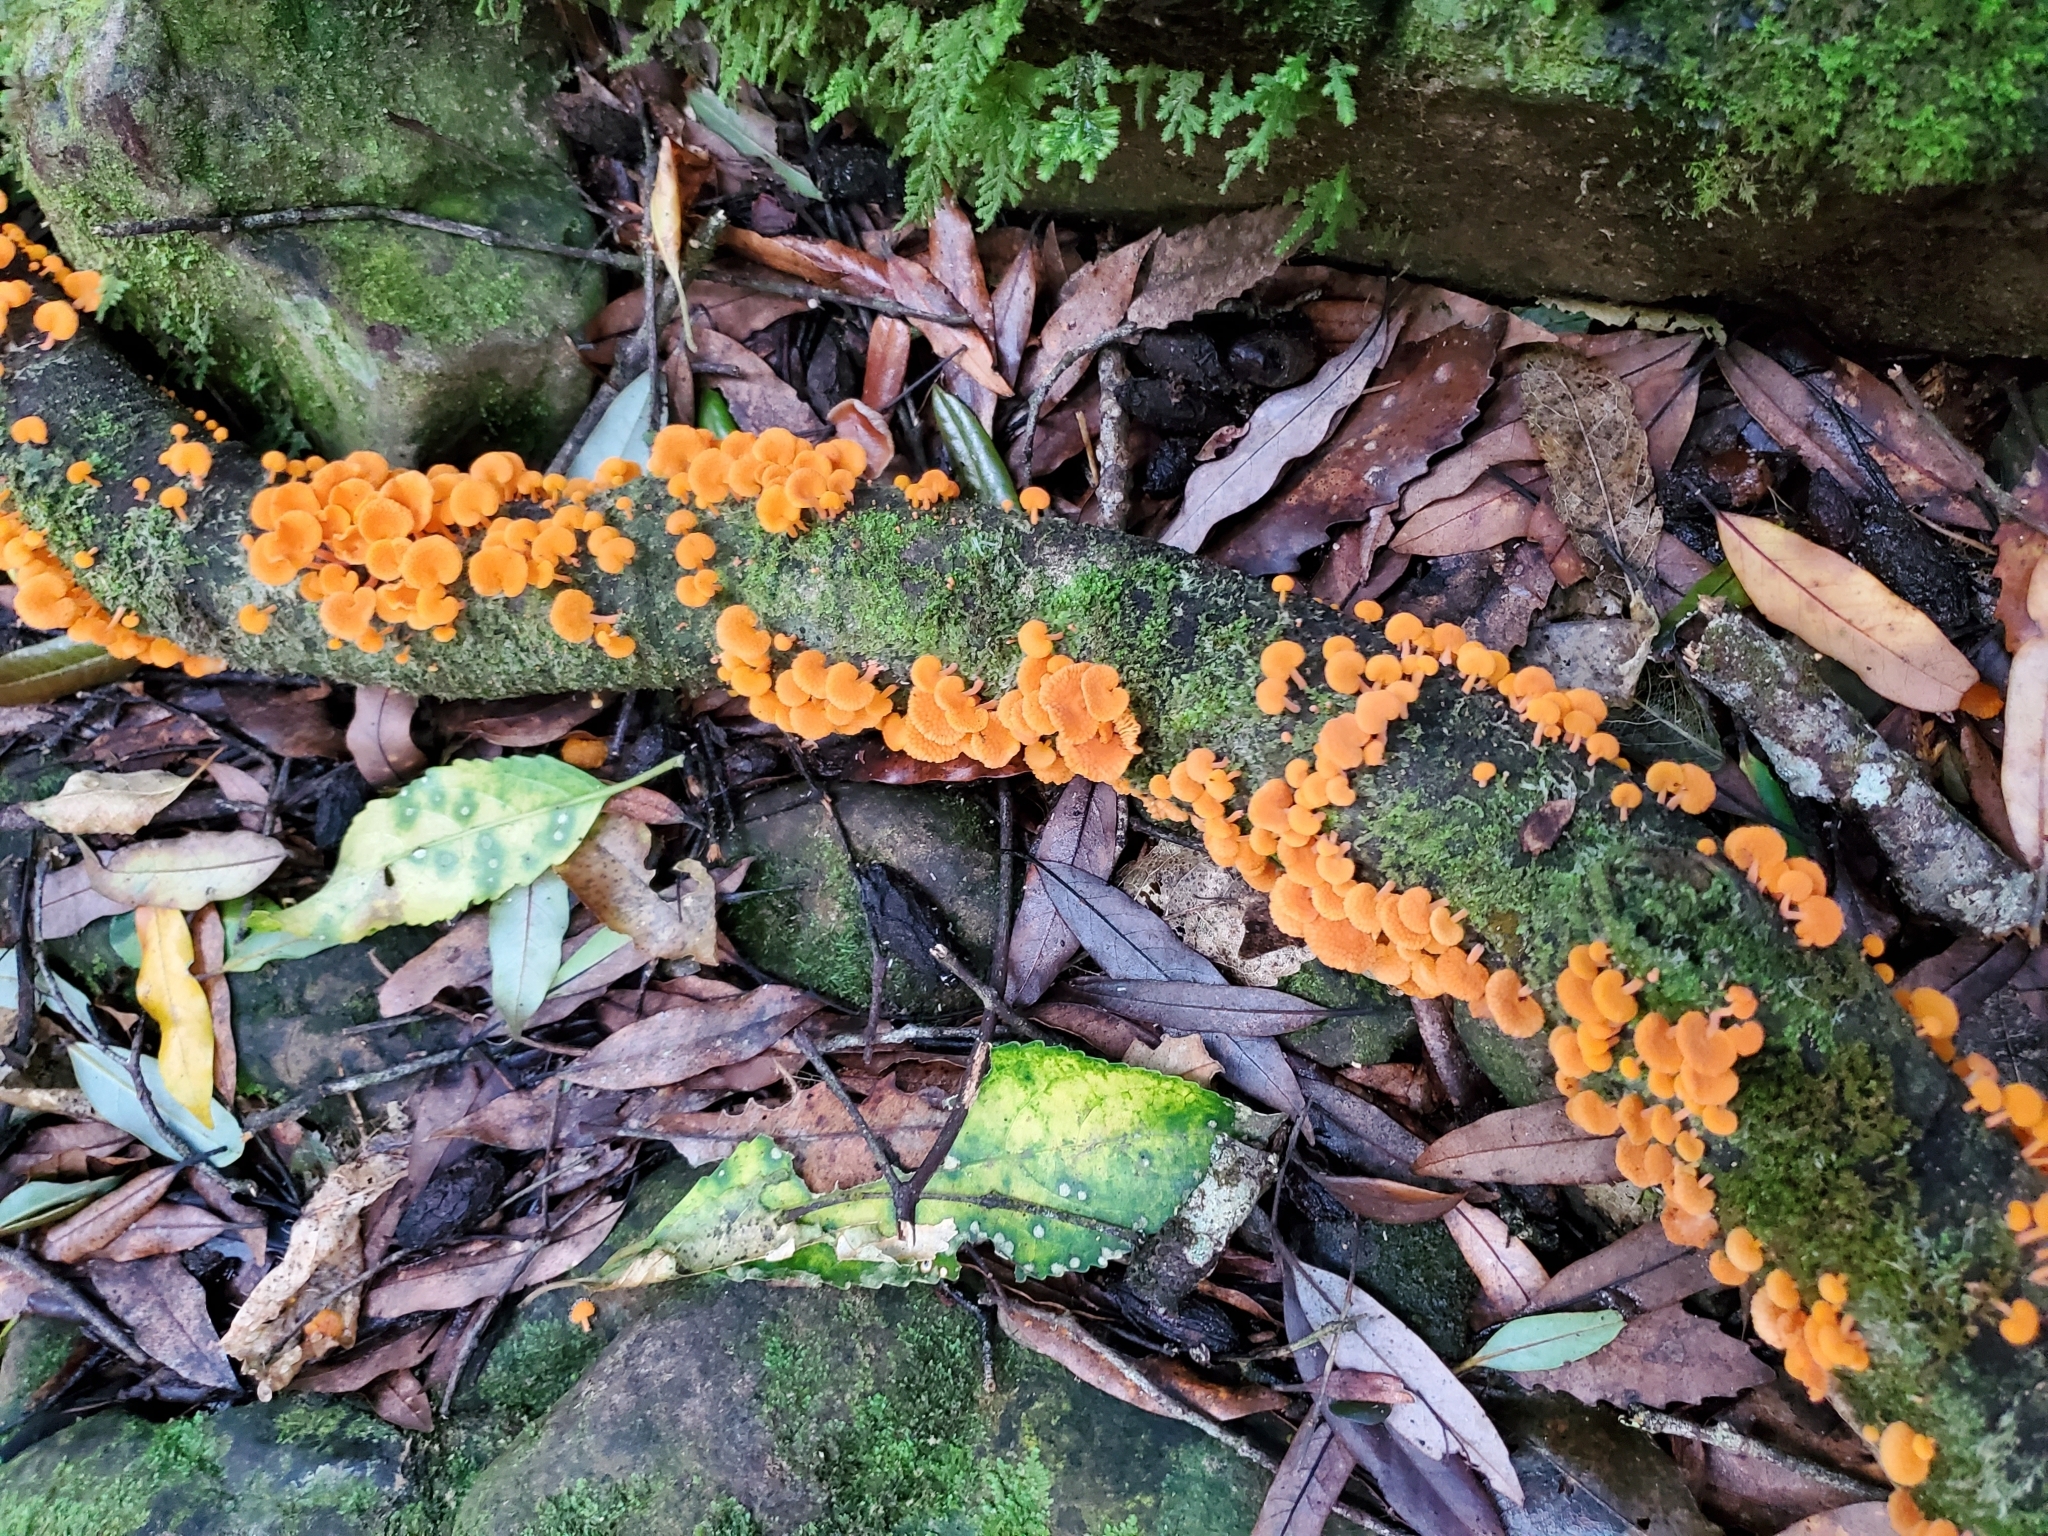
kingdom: Fungi
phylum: Basidiomycota
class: Agaricomycetes
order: Agaricales
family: Mycenaceae
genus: Favolaschia
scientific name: Favolaschia claudopus
